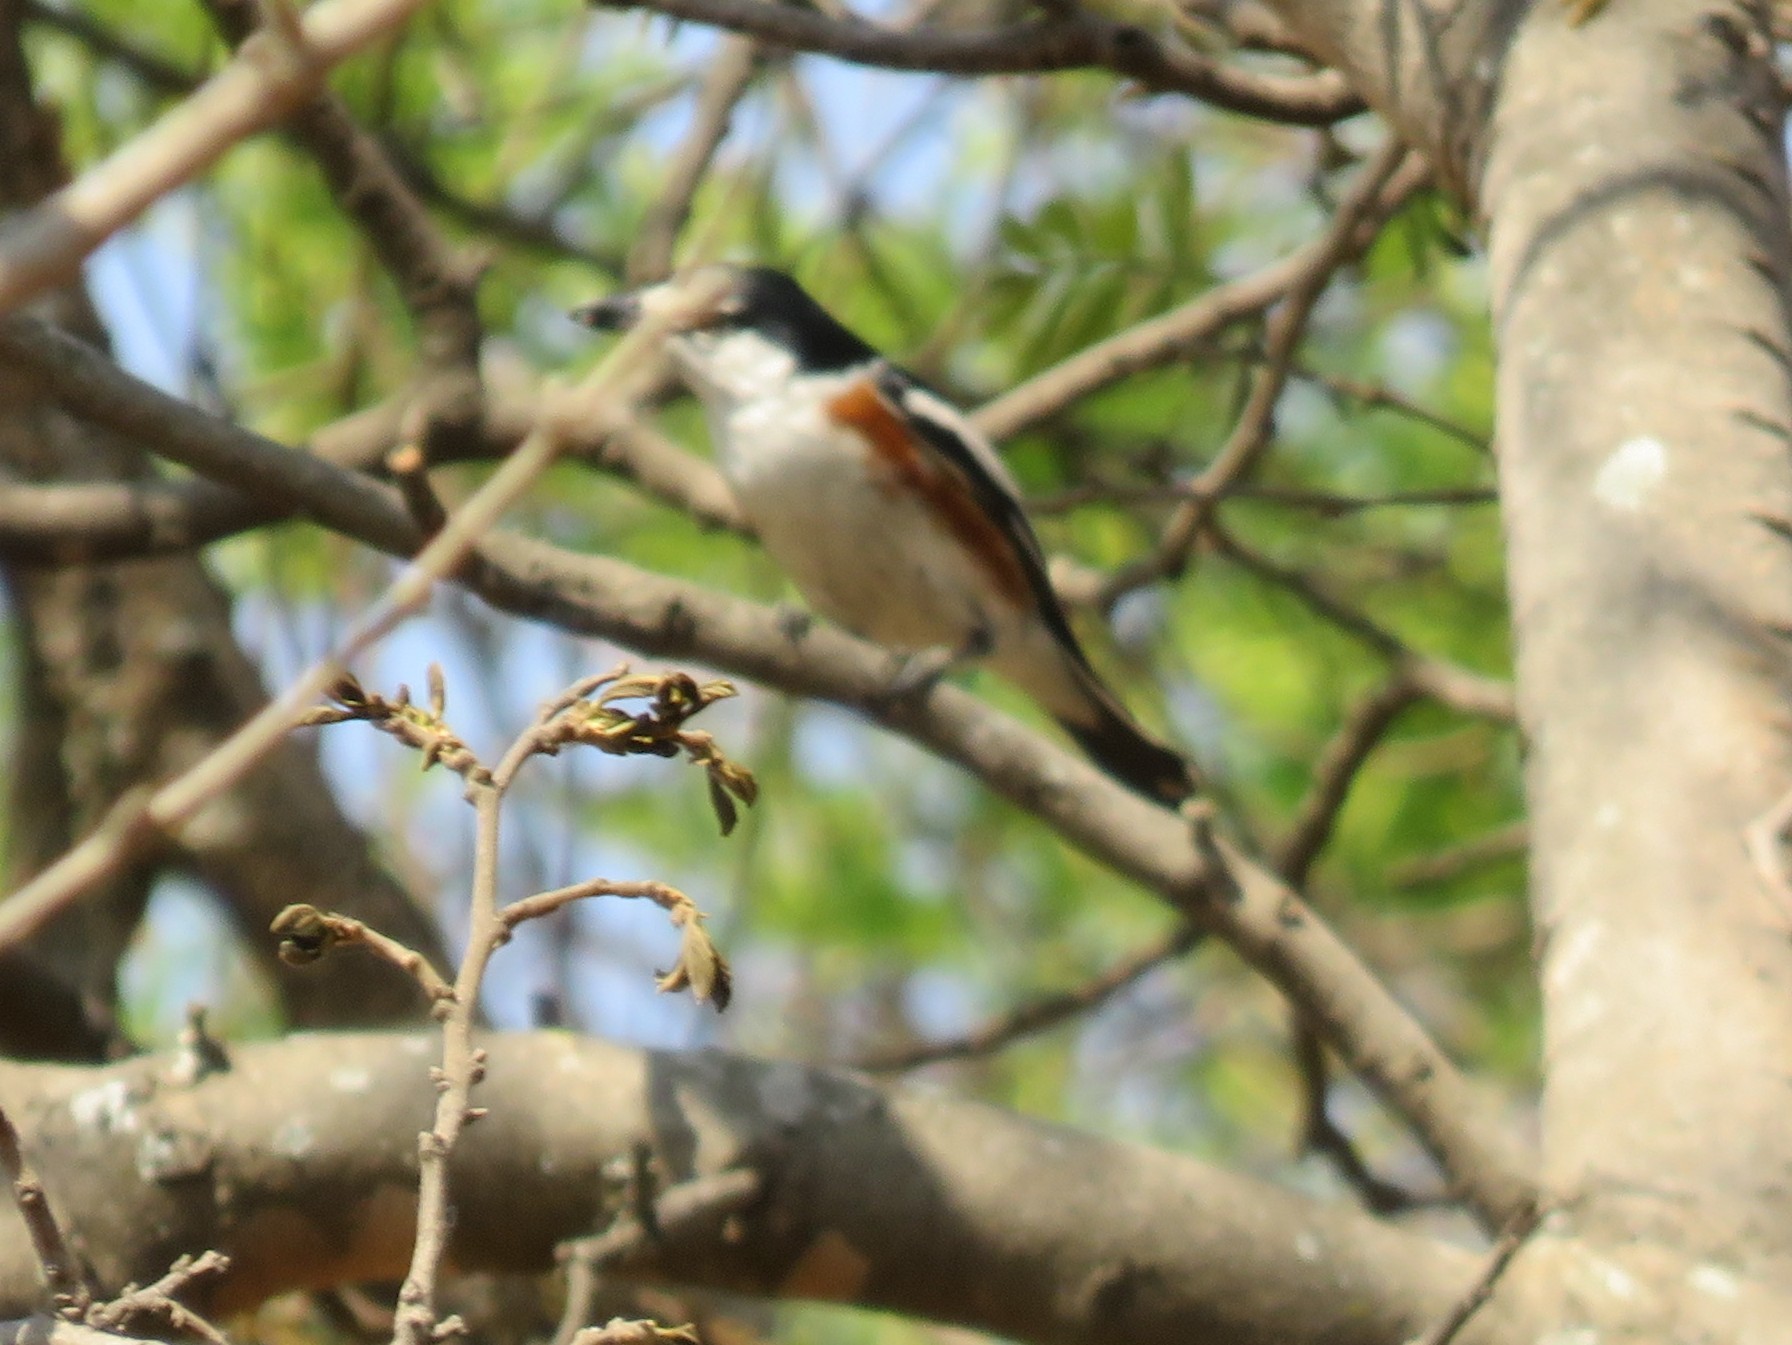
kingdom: Animalia
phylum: Chordata
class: Aves
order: Passeriformes
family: Malaconotidae
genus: Nilaus
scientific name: Nilaus afer
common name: Brubru
